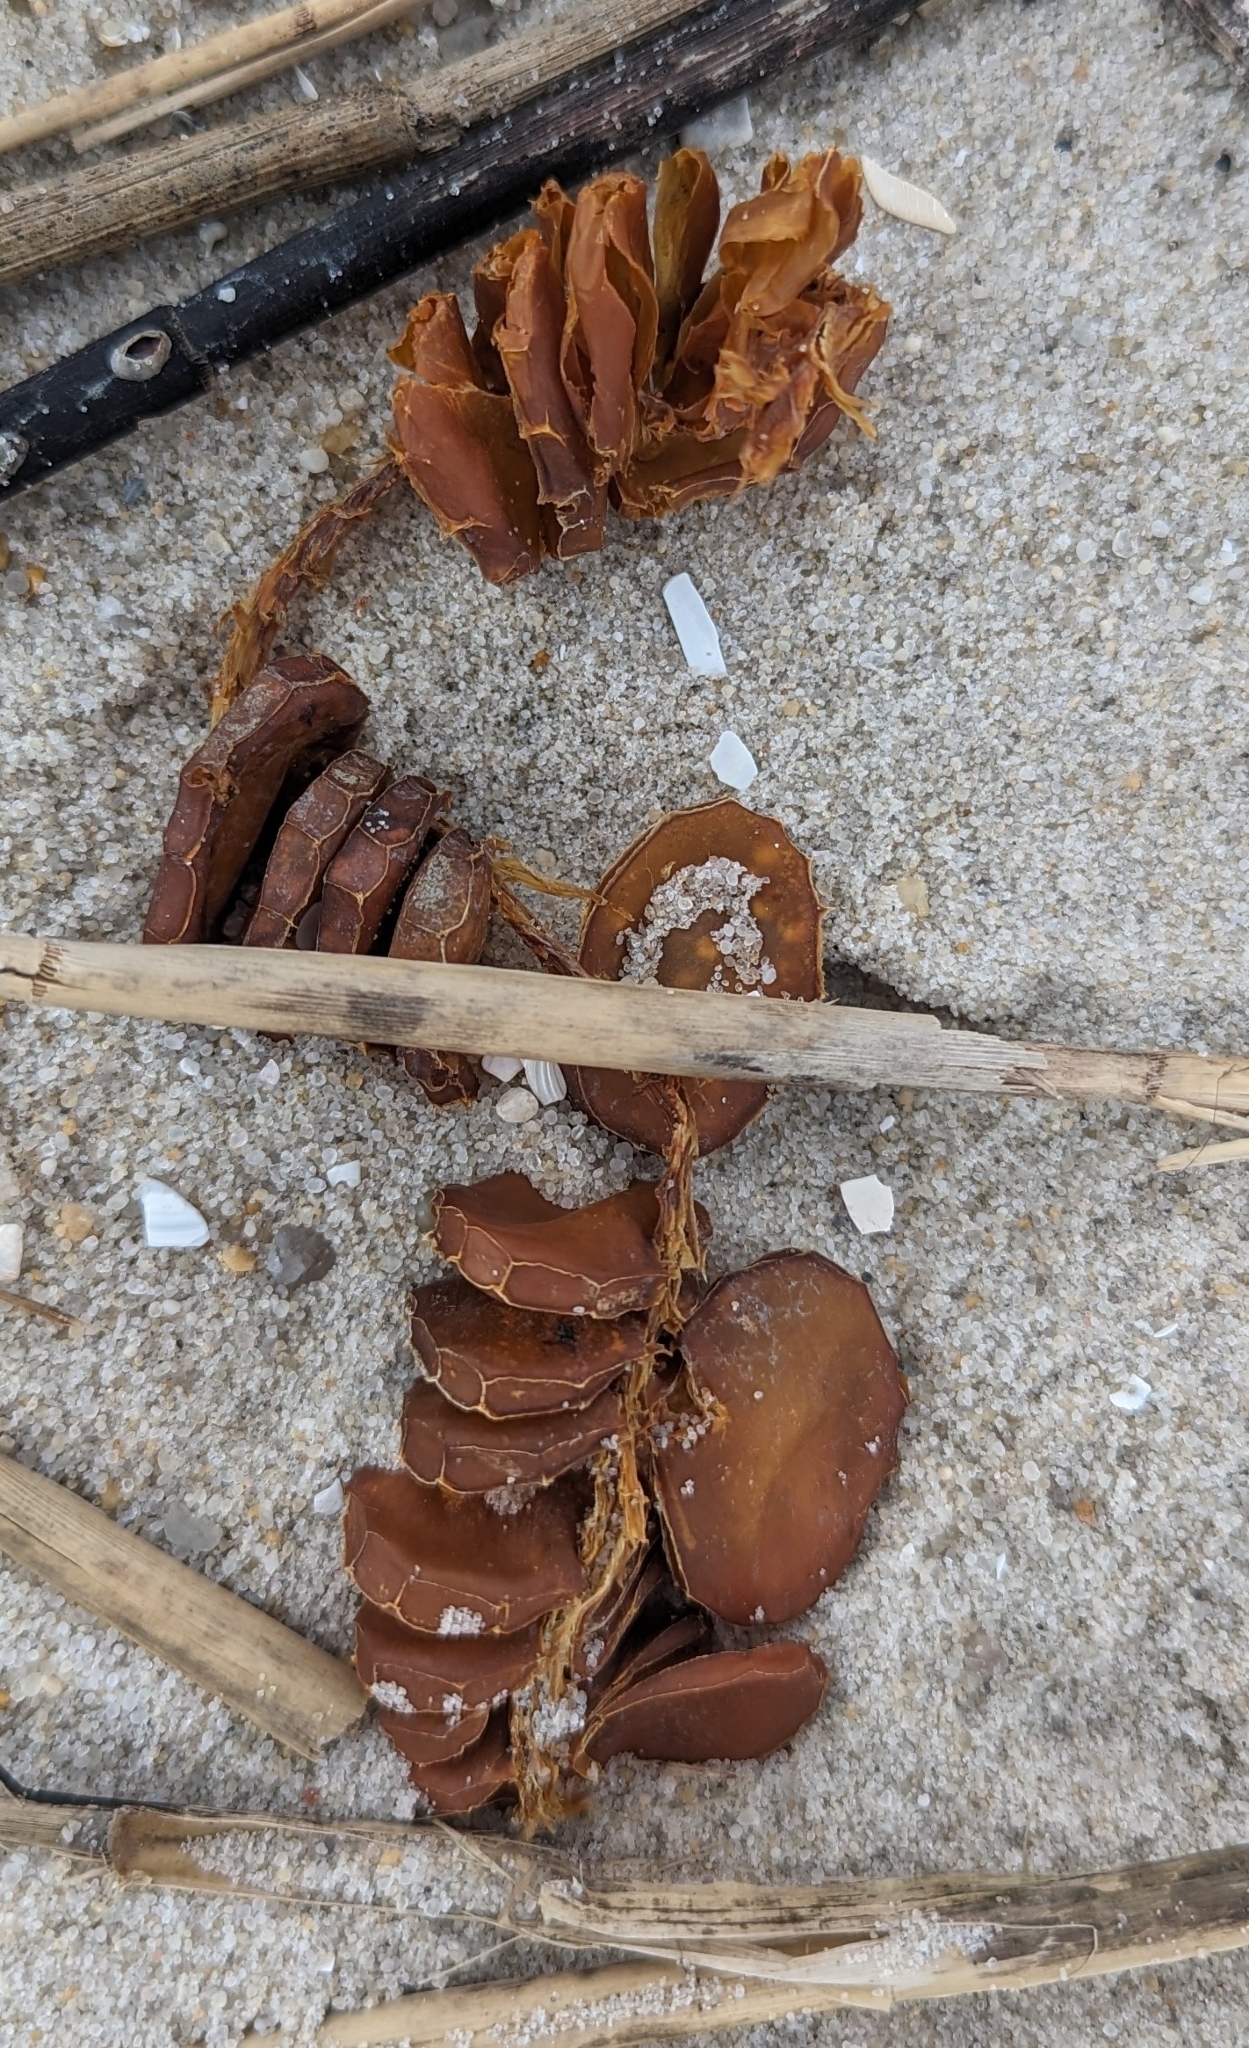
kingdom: Animalia
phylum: Mollusca
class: Gastropoda
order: Neogastropoda
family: Busyconidae
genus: Busycon
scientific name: Busycon carica
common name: Knobbed whelk
